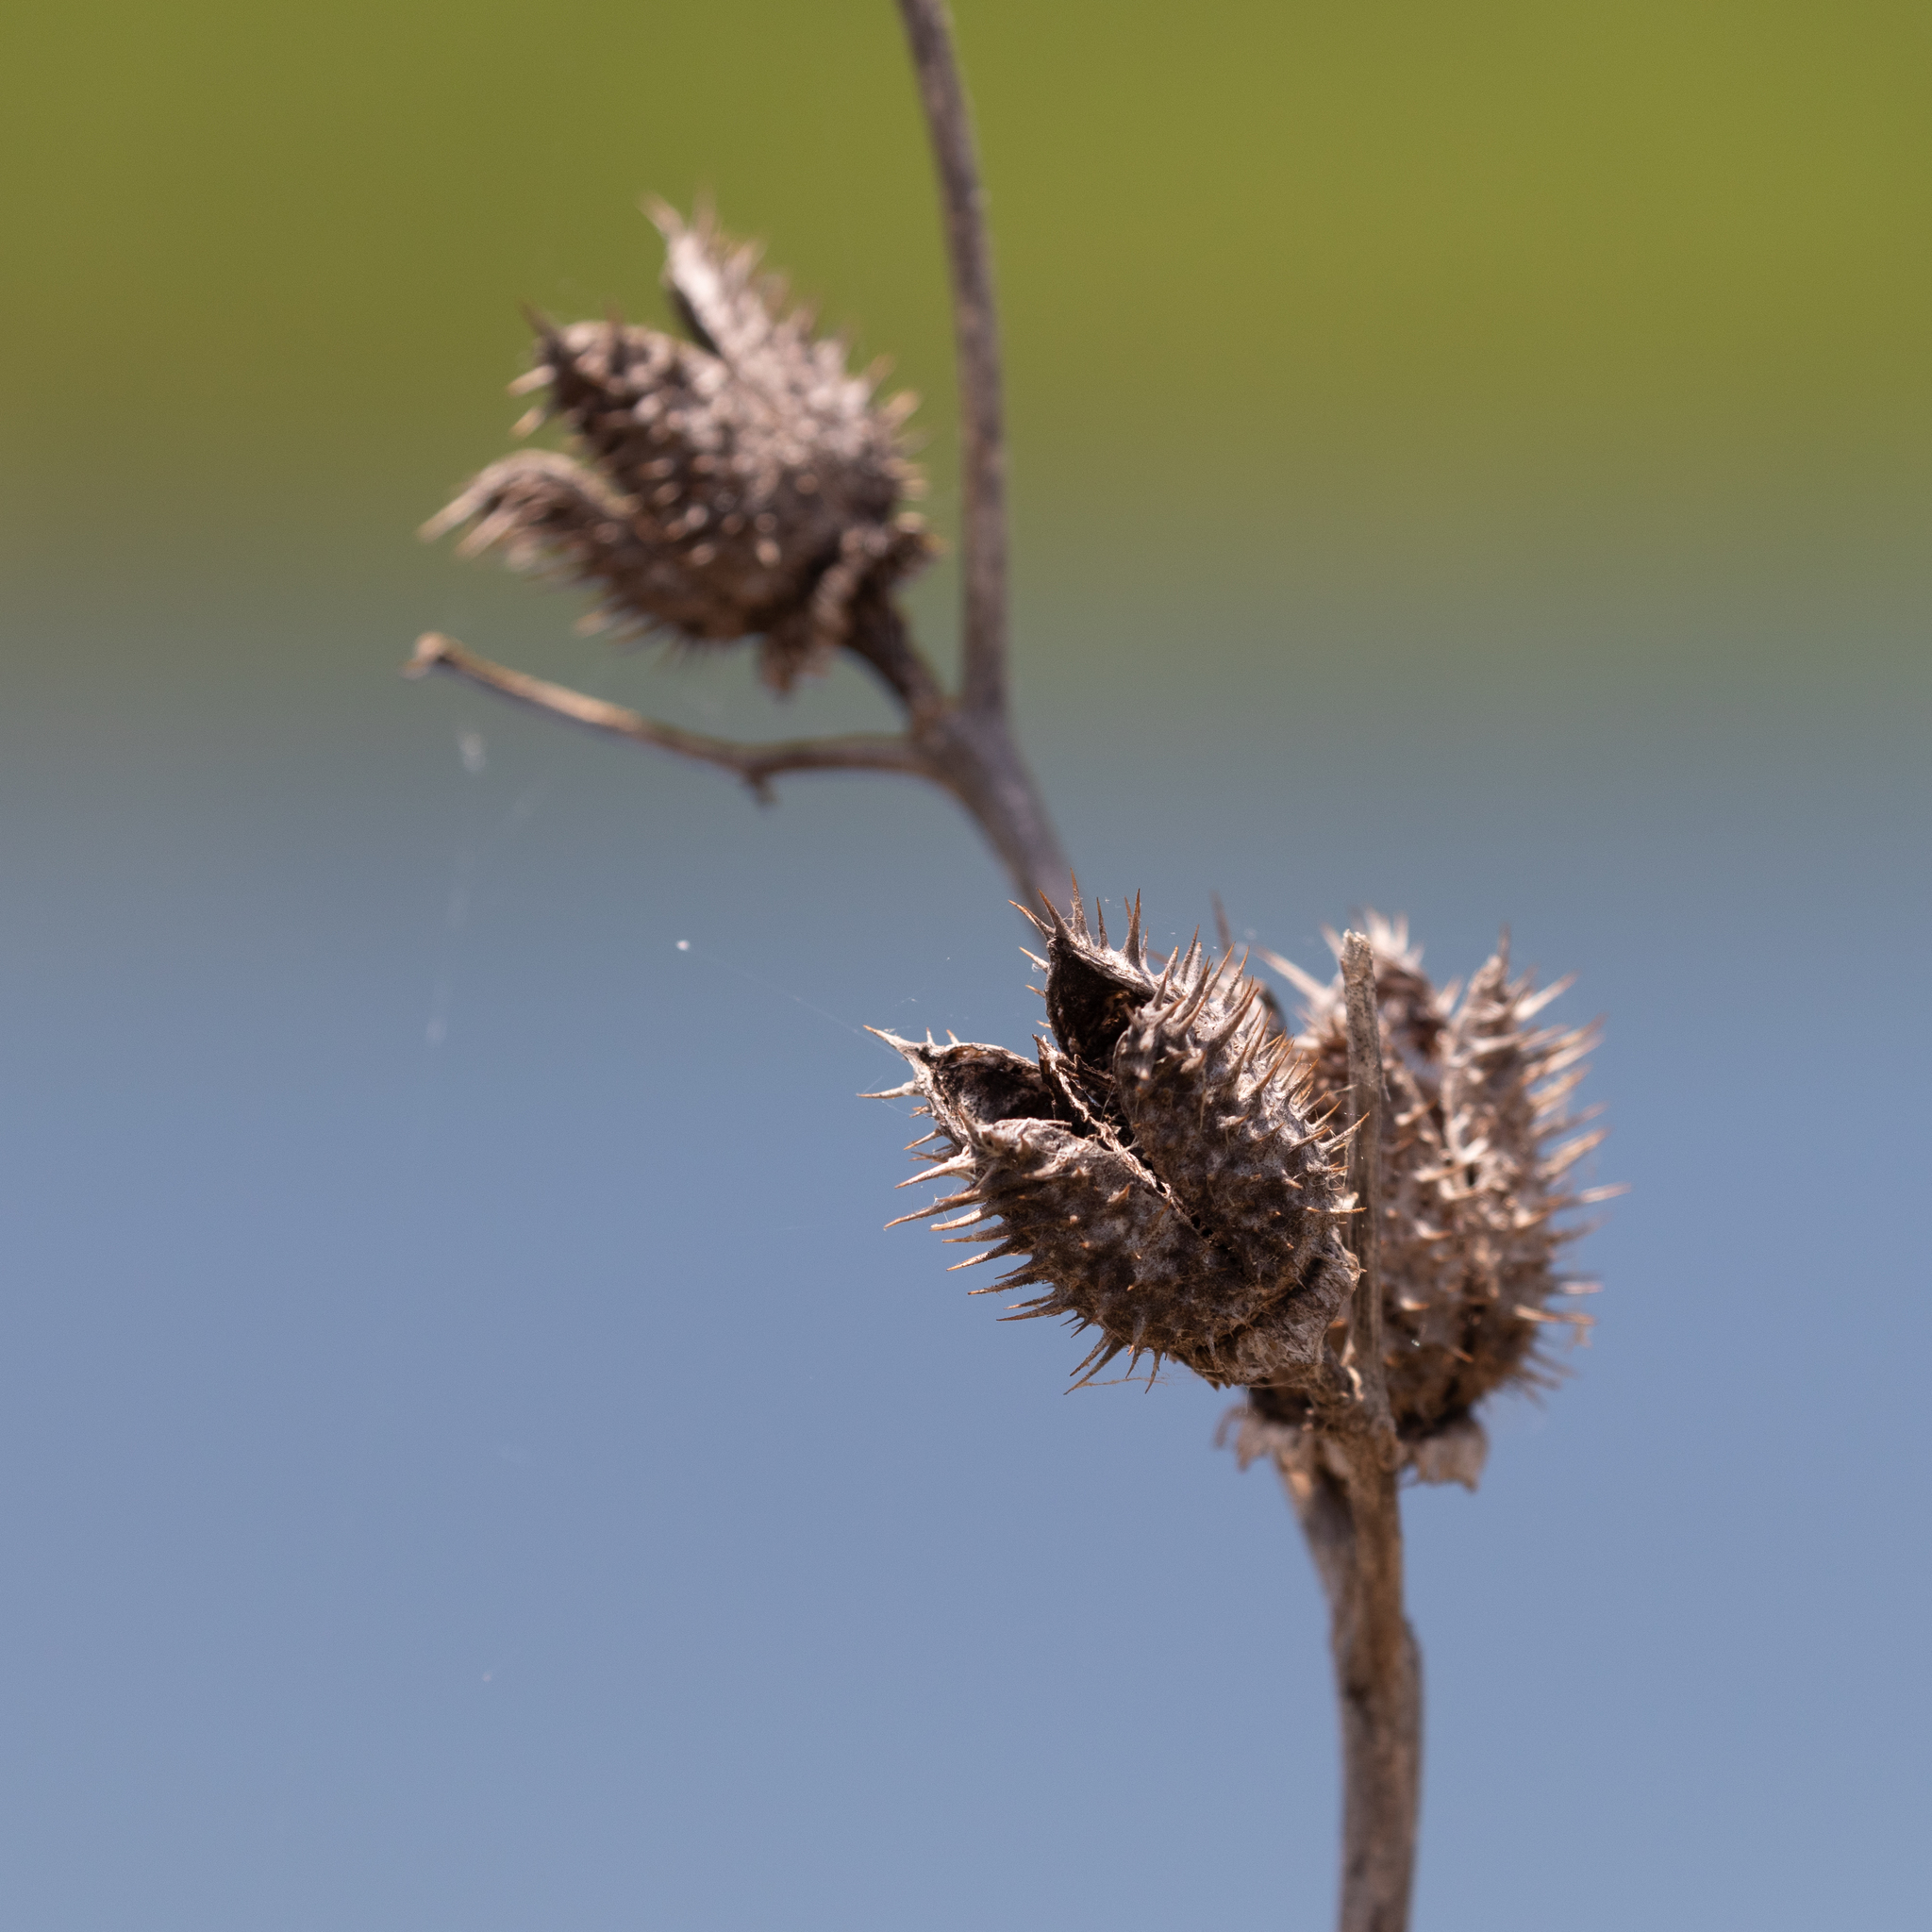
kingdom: Plantae
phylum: Tracheophyta
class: Magnoliopsida
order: Solanales
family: Solanaceae
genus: Datura
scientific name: Datura stramonium
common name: Thorn-apple
